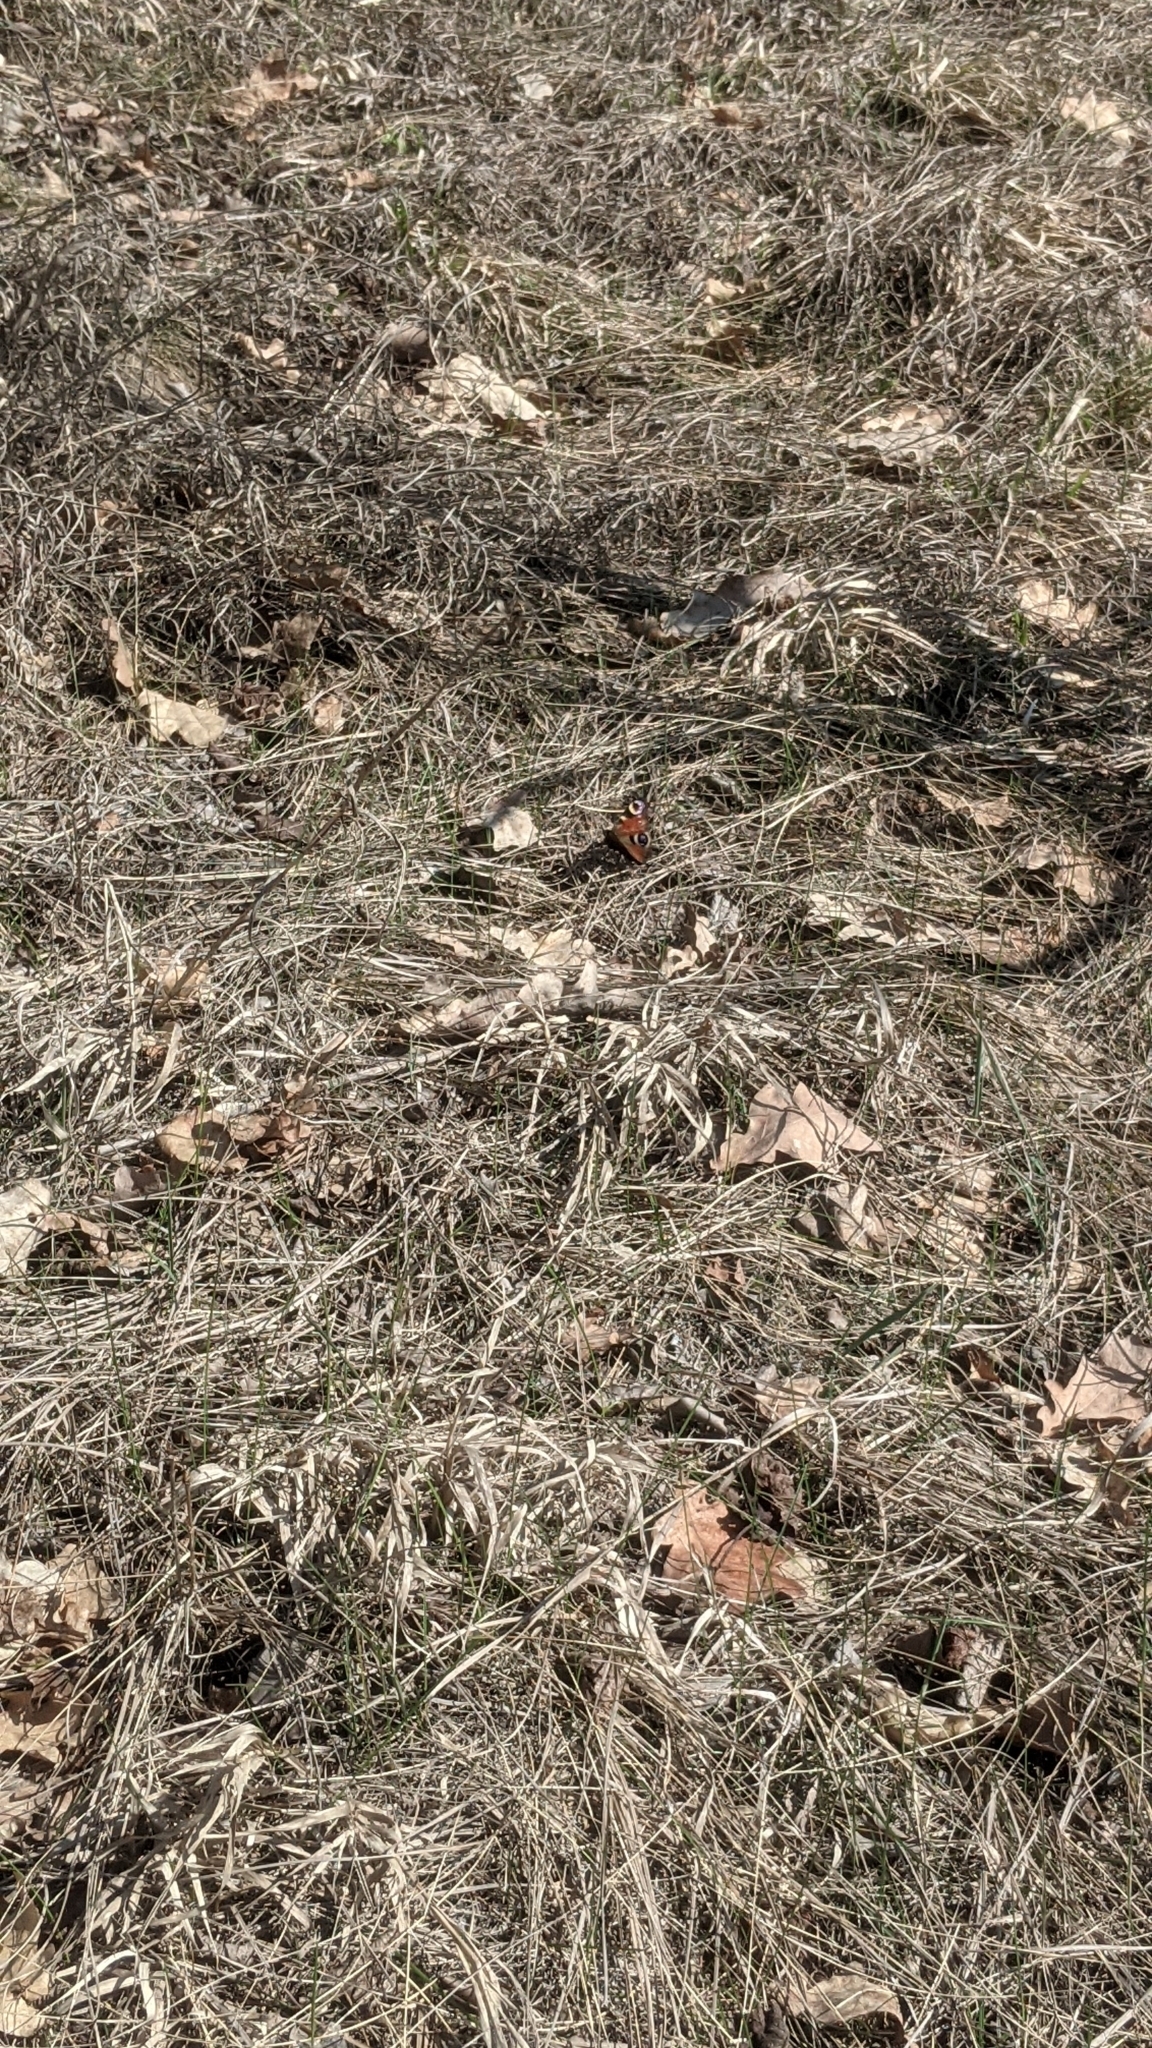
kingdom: Animalia
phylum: Arthropoda
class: Insecta
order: Lepidoptera
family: Nymphalidae
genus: Aglais
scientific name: Aglais io
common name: Peacock
